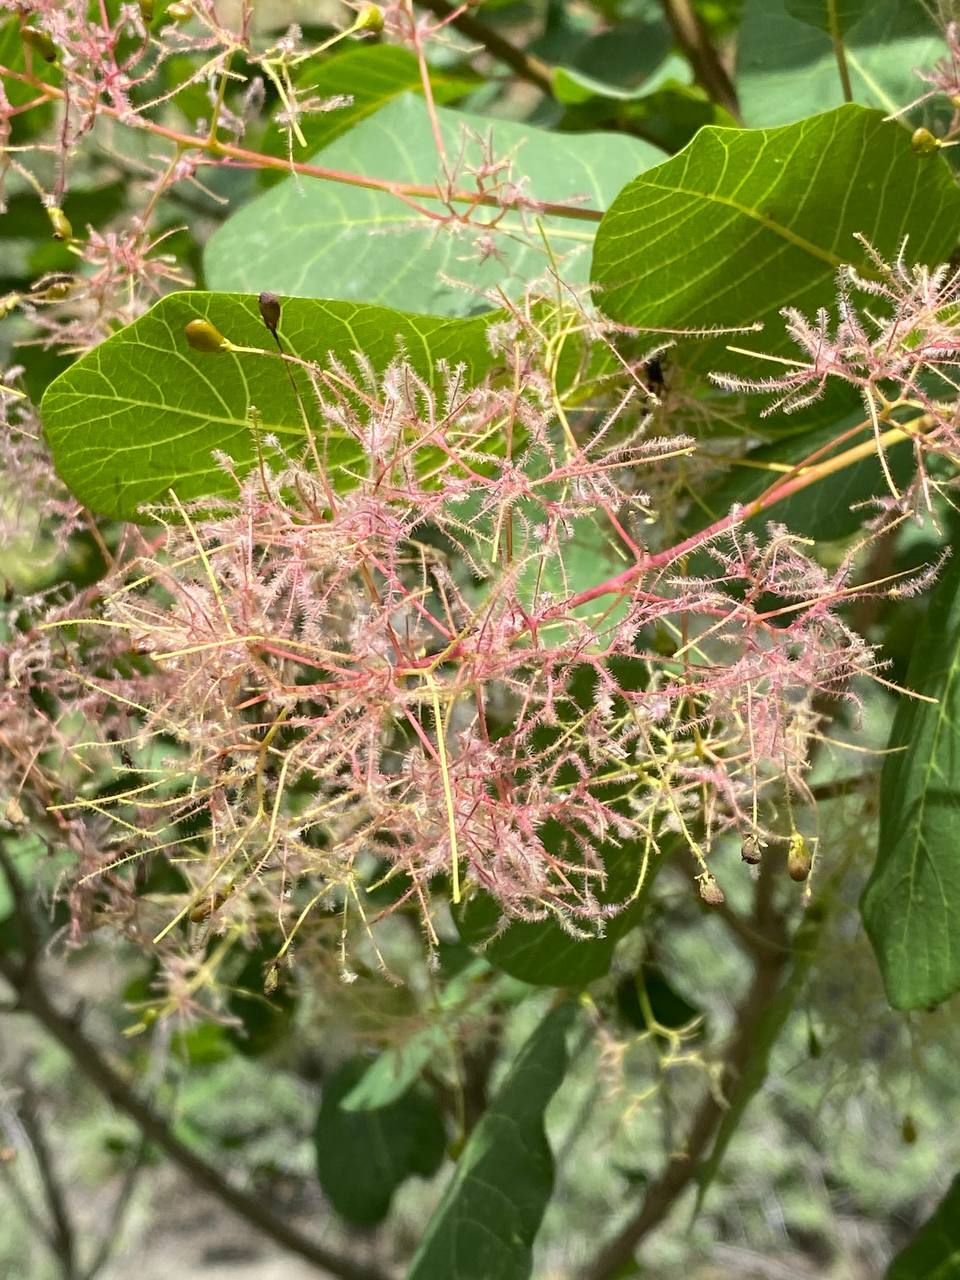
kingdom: Plantae
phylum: Tracheophyta
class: Magnoliopsida
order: Sapindales
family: Anacardiaceae
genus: Cotinus
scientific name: Cotinus coggygria
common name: Smoke-tree
